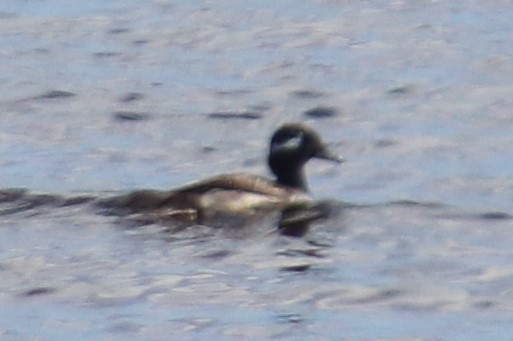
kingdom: Animalia
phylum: Chordata
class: Aves
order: Anseriformes
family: Anatidae
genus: Bucephala
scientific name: Bucephala albeola
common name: Bufflehead
